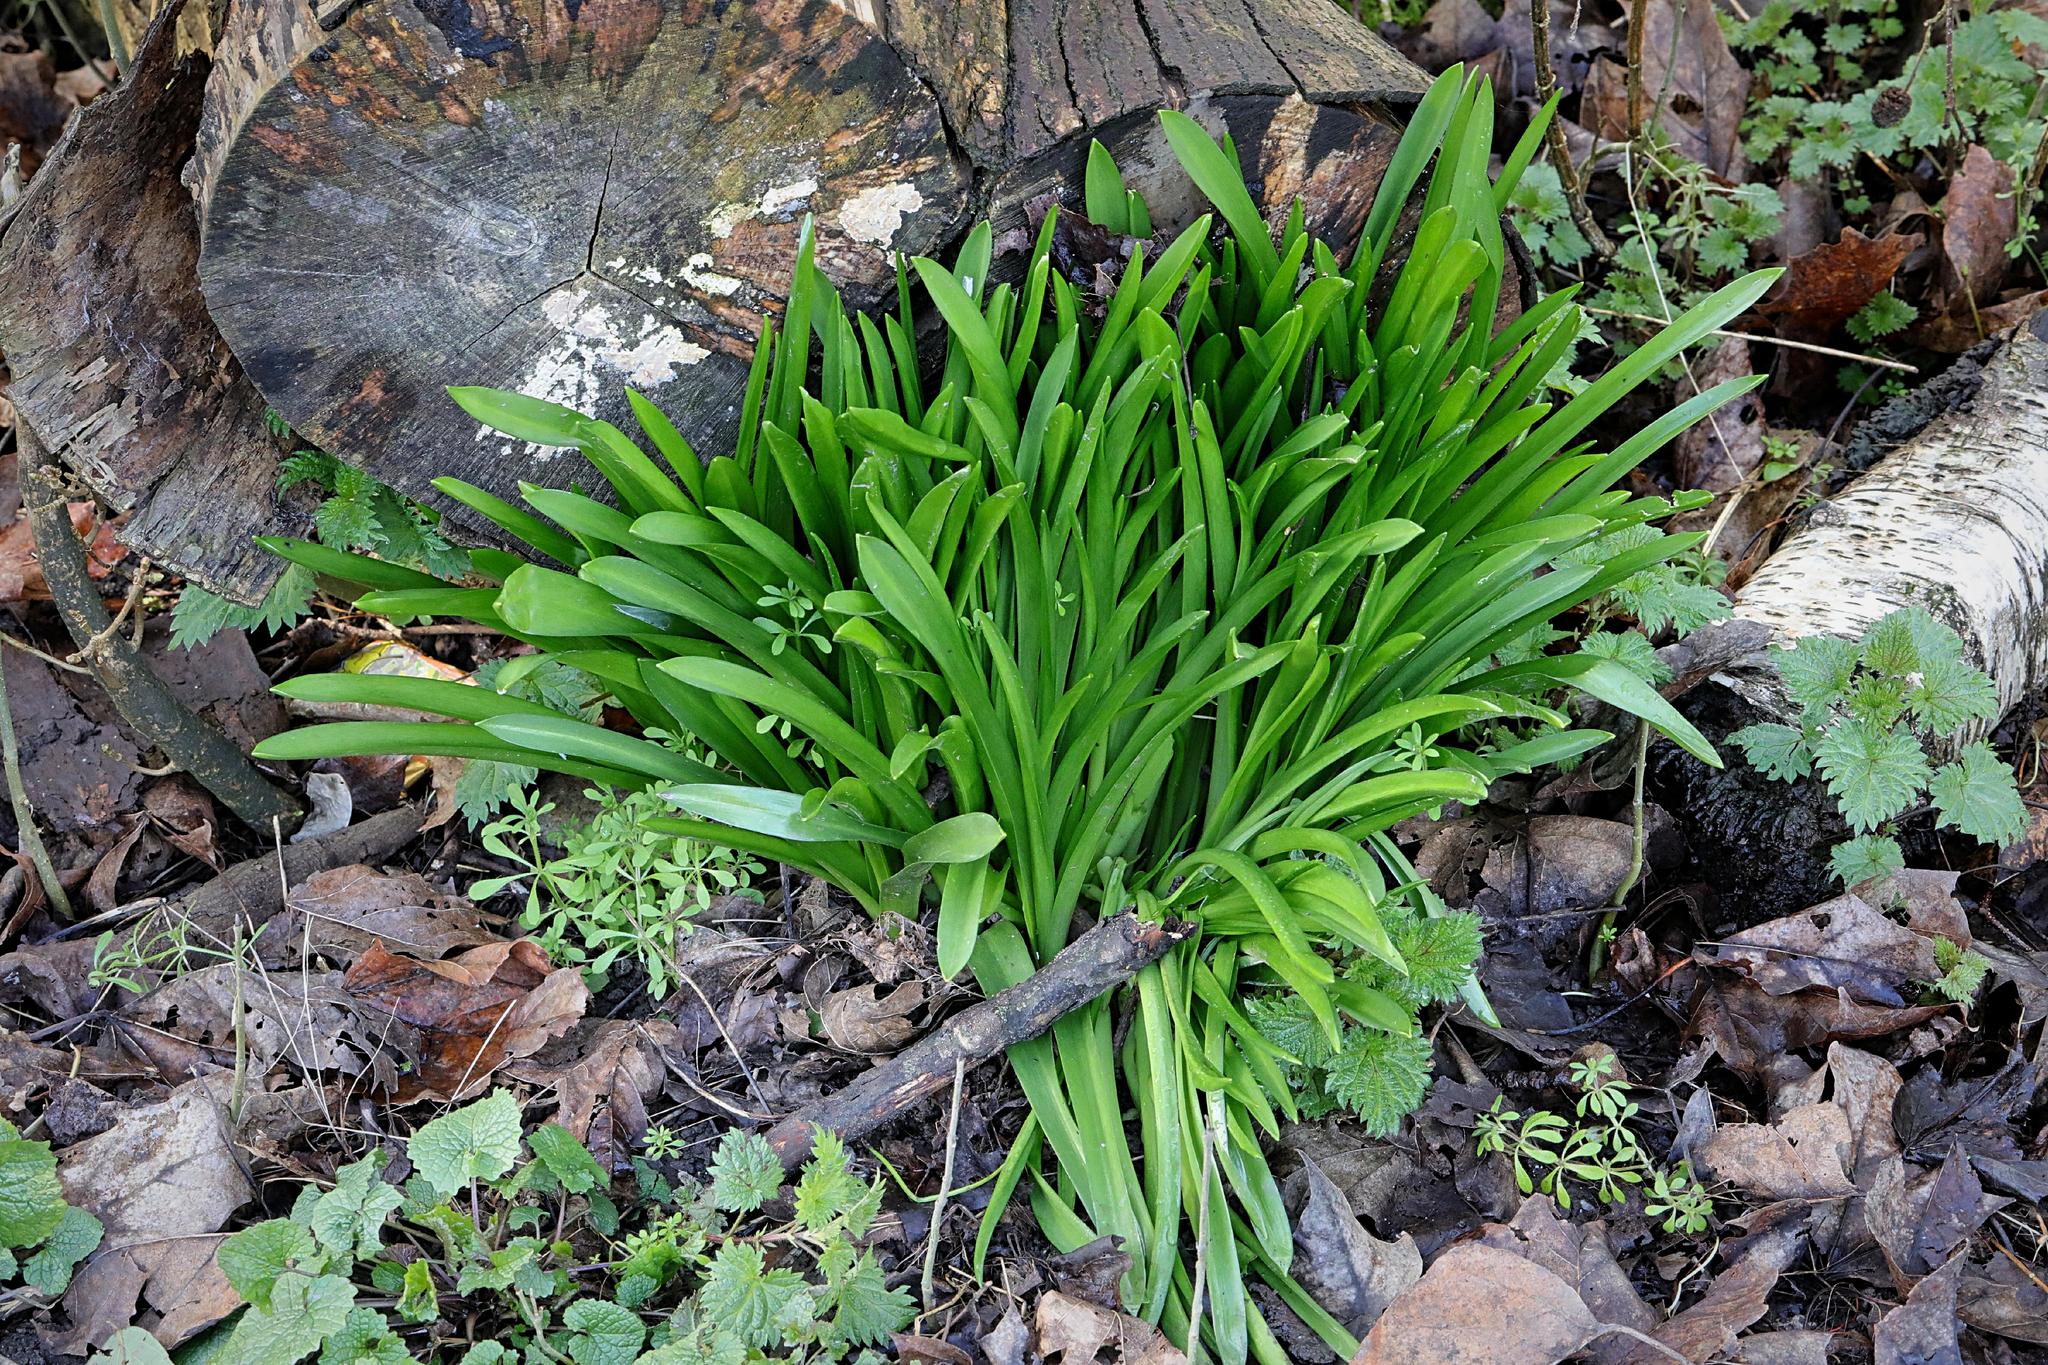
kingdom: Plantae
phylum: Tracheophyta
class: Liliopsida
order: Asparagales
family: Asparagaceae
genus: Hyacinthoides
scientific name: Hyacinthoides massartiana
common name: Hyacinthoides
